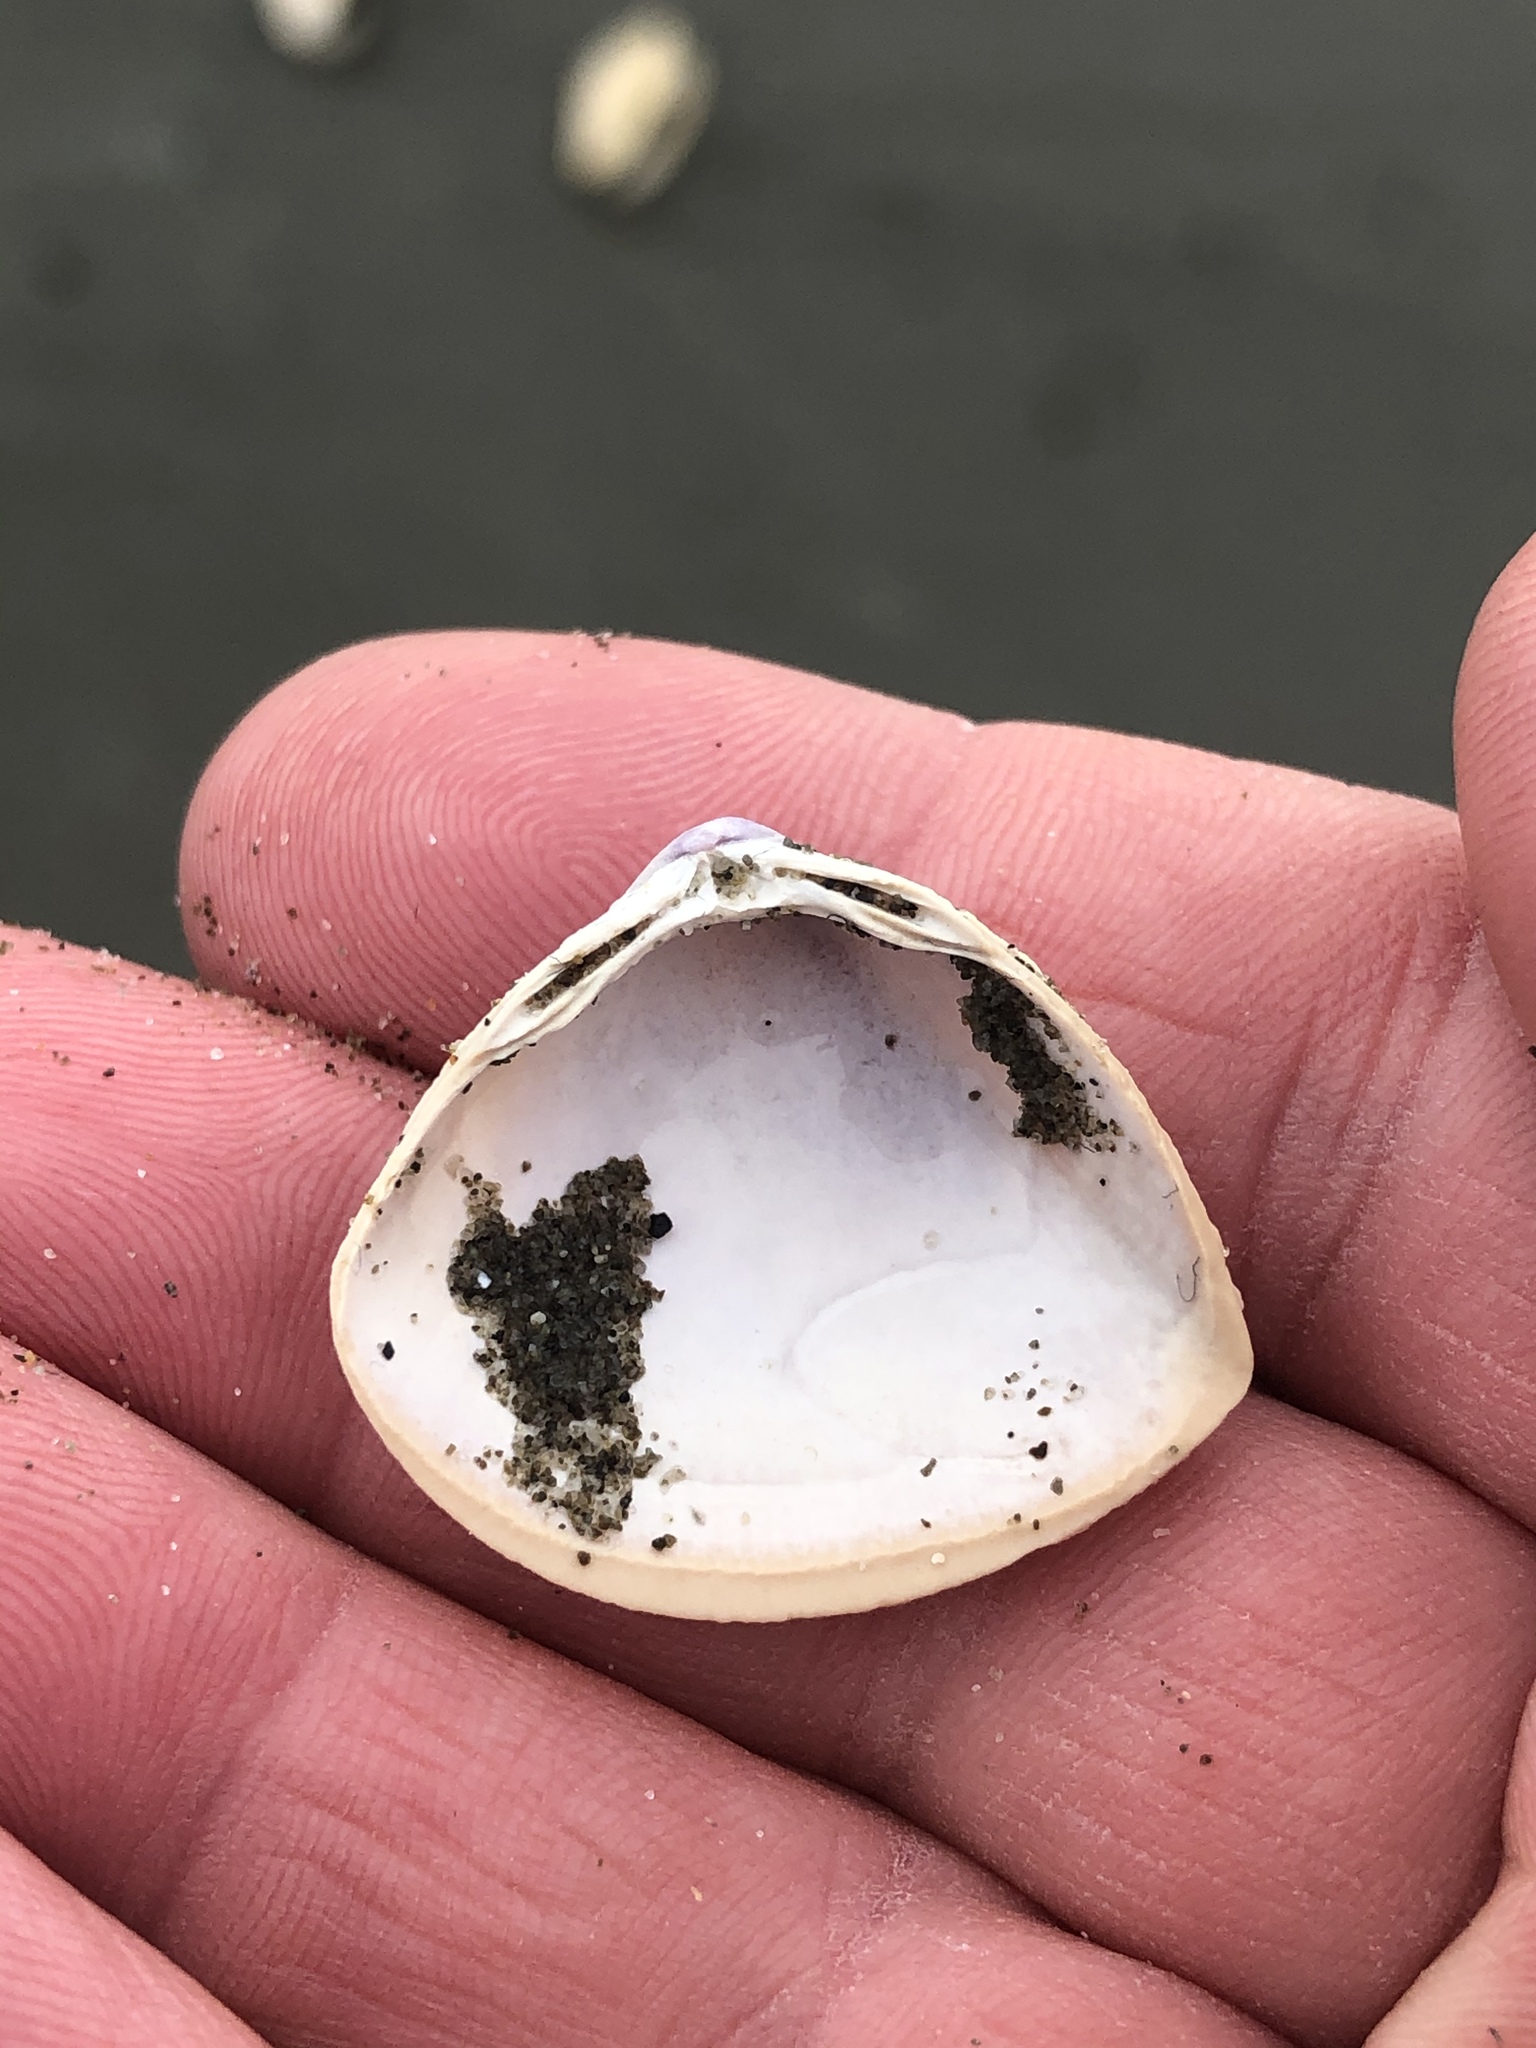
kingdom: Animalia
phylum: Mollusca
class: Bivalvia
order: Venerida
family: Mactridae
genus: Crassula
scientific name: Crassula aequilatera
